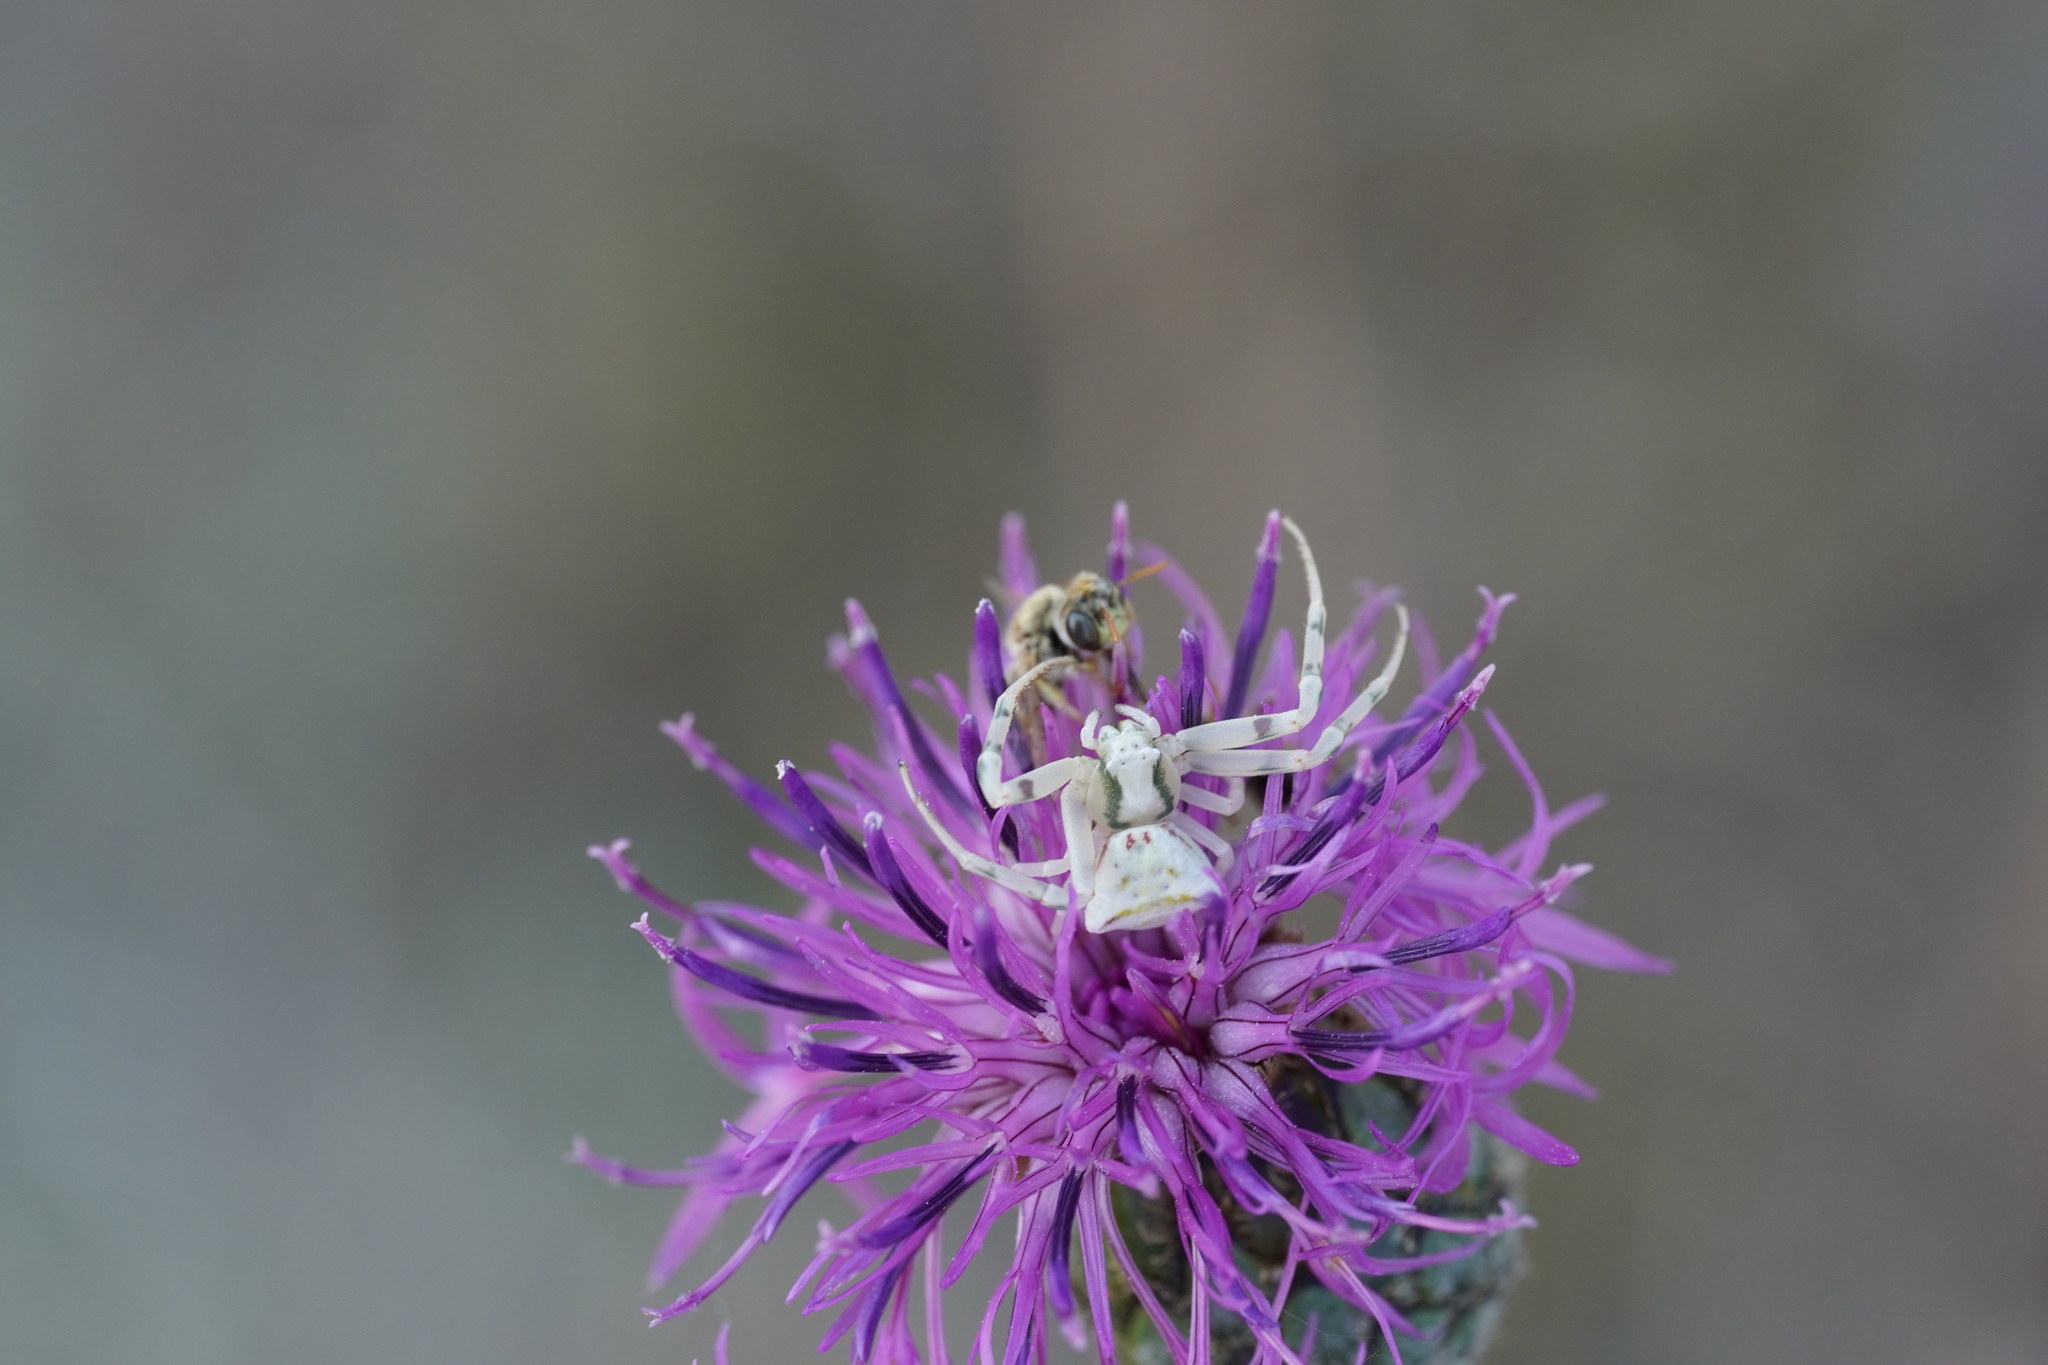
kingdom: Animalia
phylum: Arthropoda
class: Arachnida
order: Araneae
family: Thomisidae
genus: Thomisus
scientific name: Thomisus onustus
